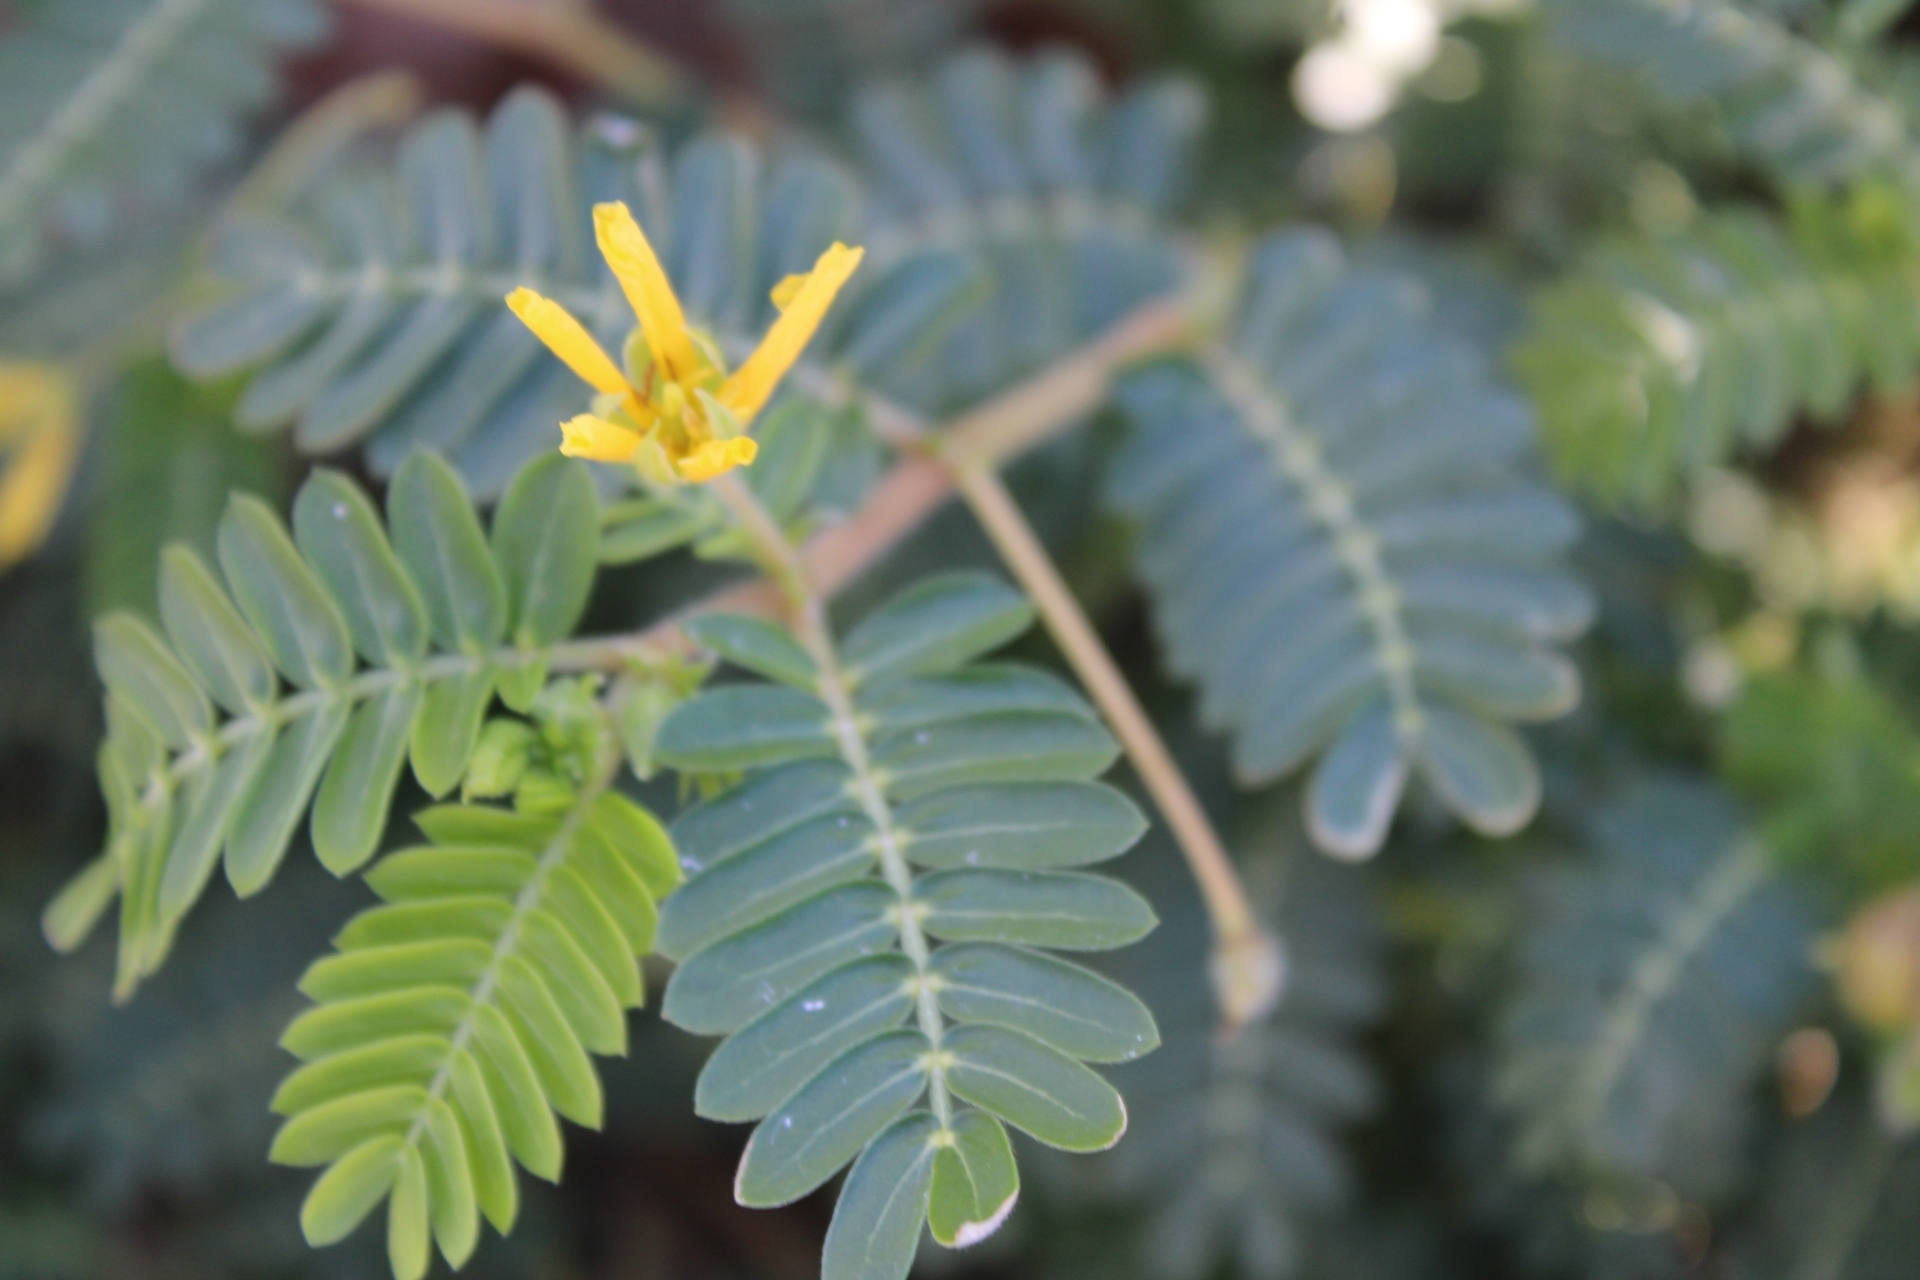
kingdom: Plantae
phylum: Tracheophyta
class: Magnoliopsida
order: Zygophyllales
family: Zygophyllaceae
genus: Tribulus
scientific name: Tribulus cistoides
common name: Jamaican feverplant
